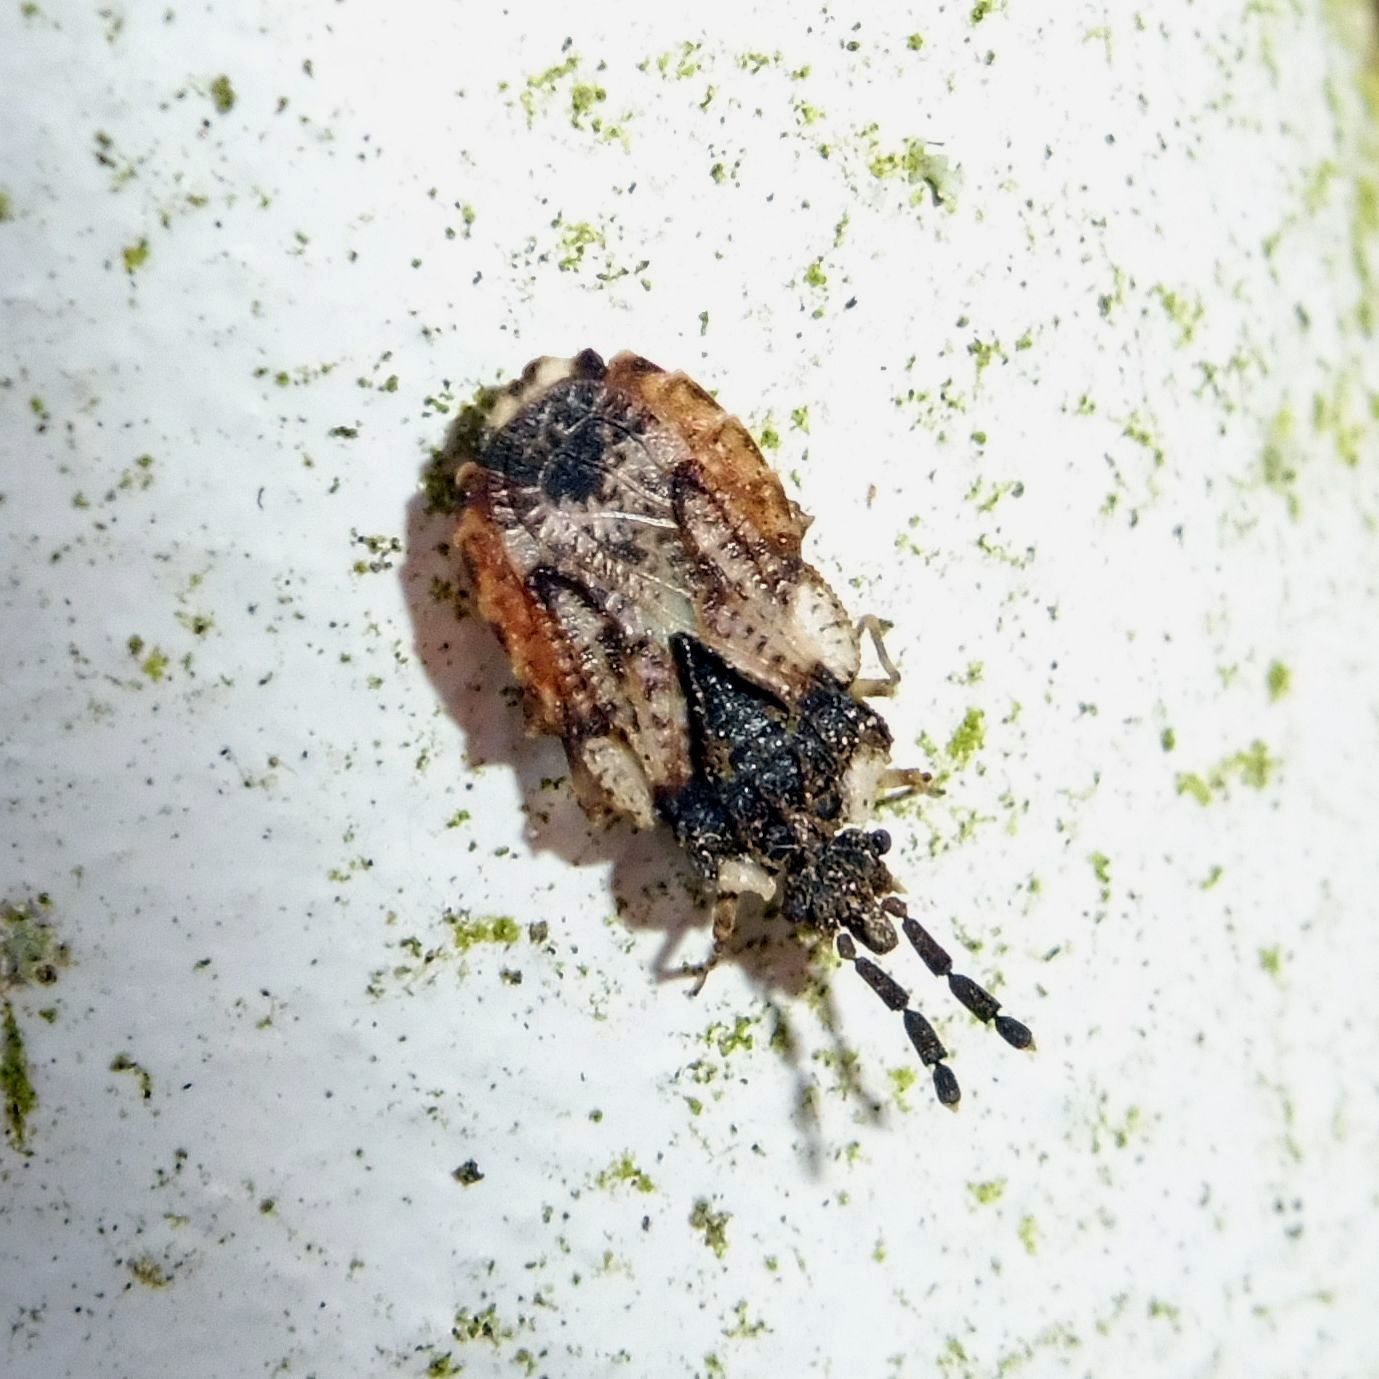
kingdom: Animalia
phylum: Arthropoda
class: Insecta
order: Hemiptera
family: Aradidae
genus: Aradus
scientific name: Aradus depressus
